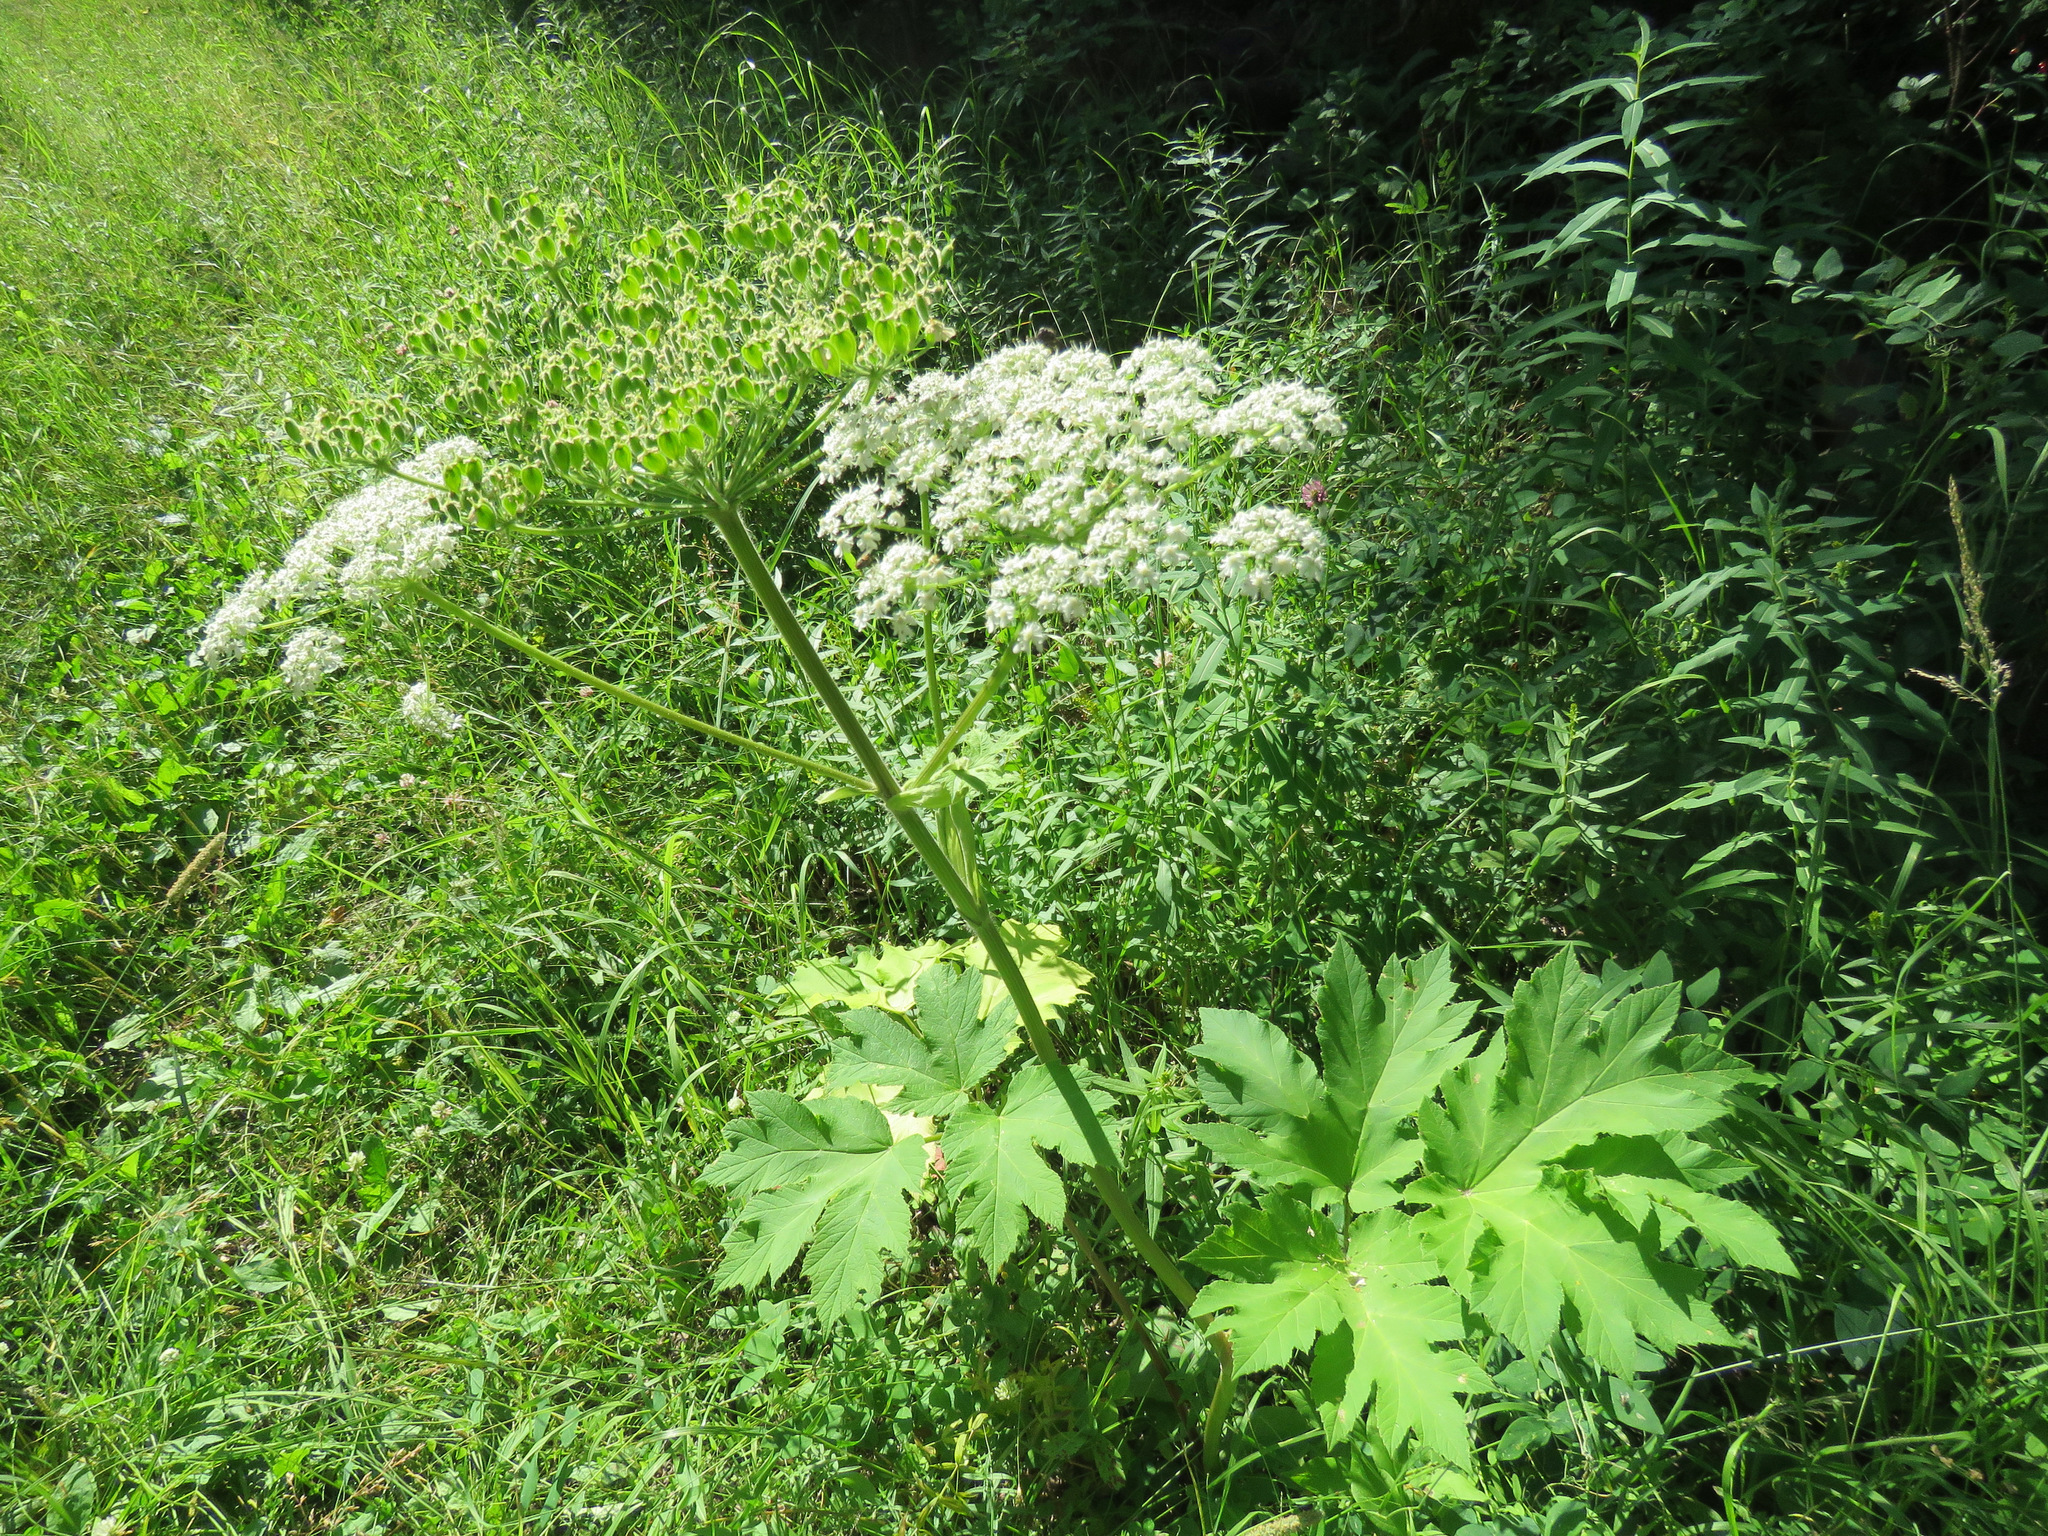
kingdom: Plantae
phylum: Tracheophyta
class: Magnoliopsida
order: Apiales
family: Apiaceae
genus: Heracleum
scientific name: Heracleum maximum
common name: American cow parsnip
